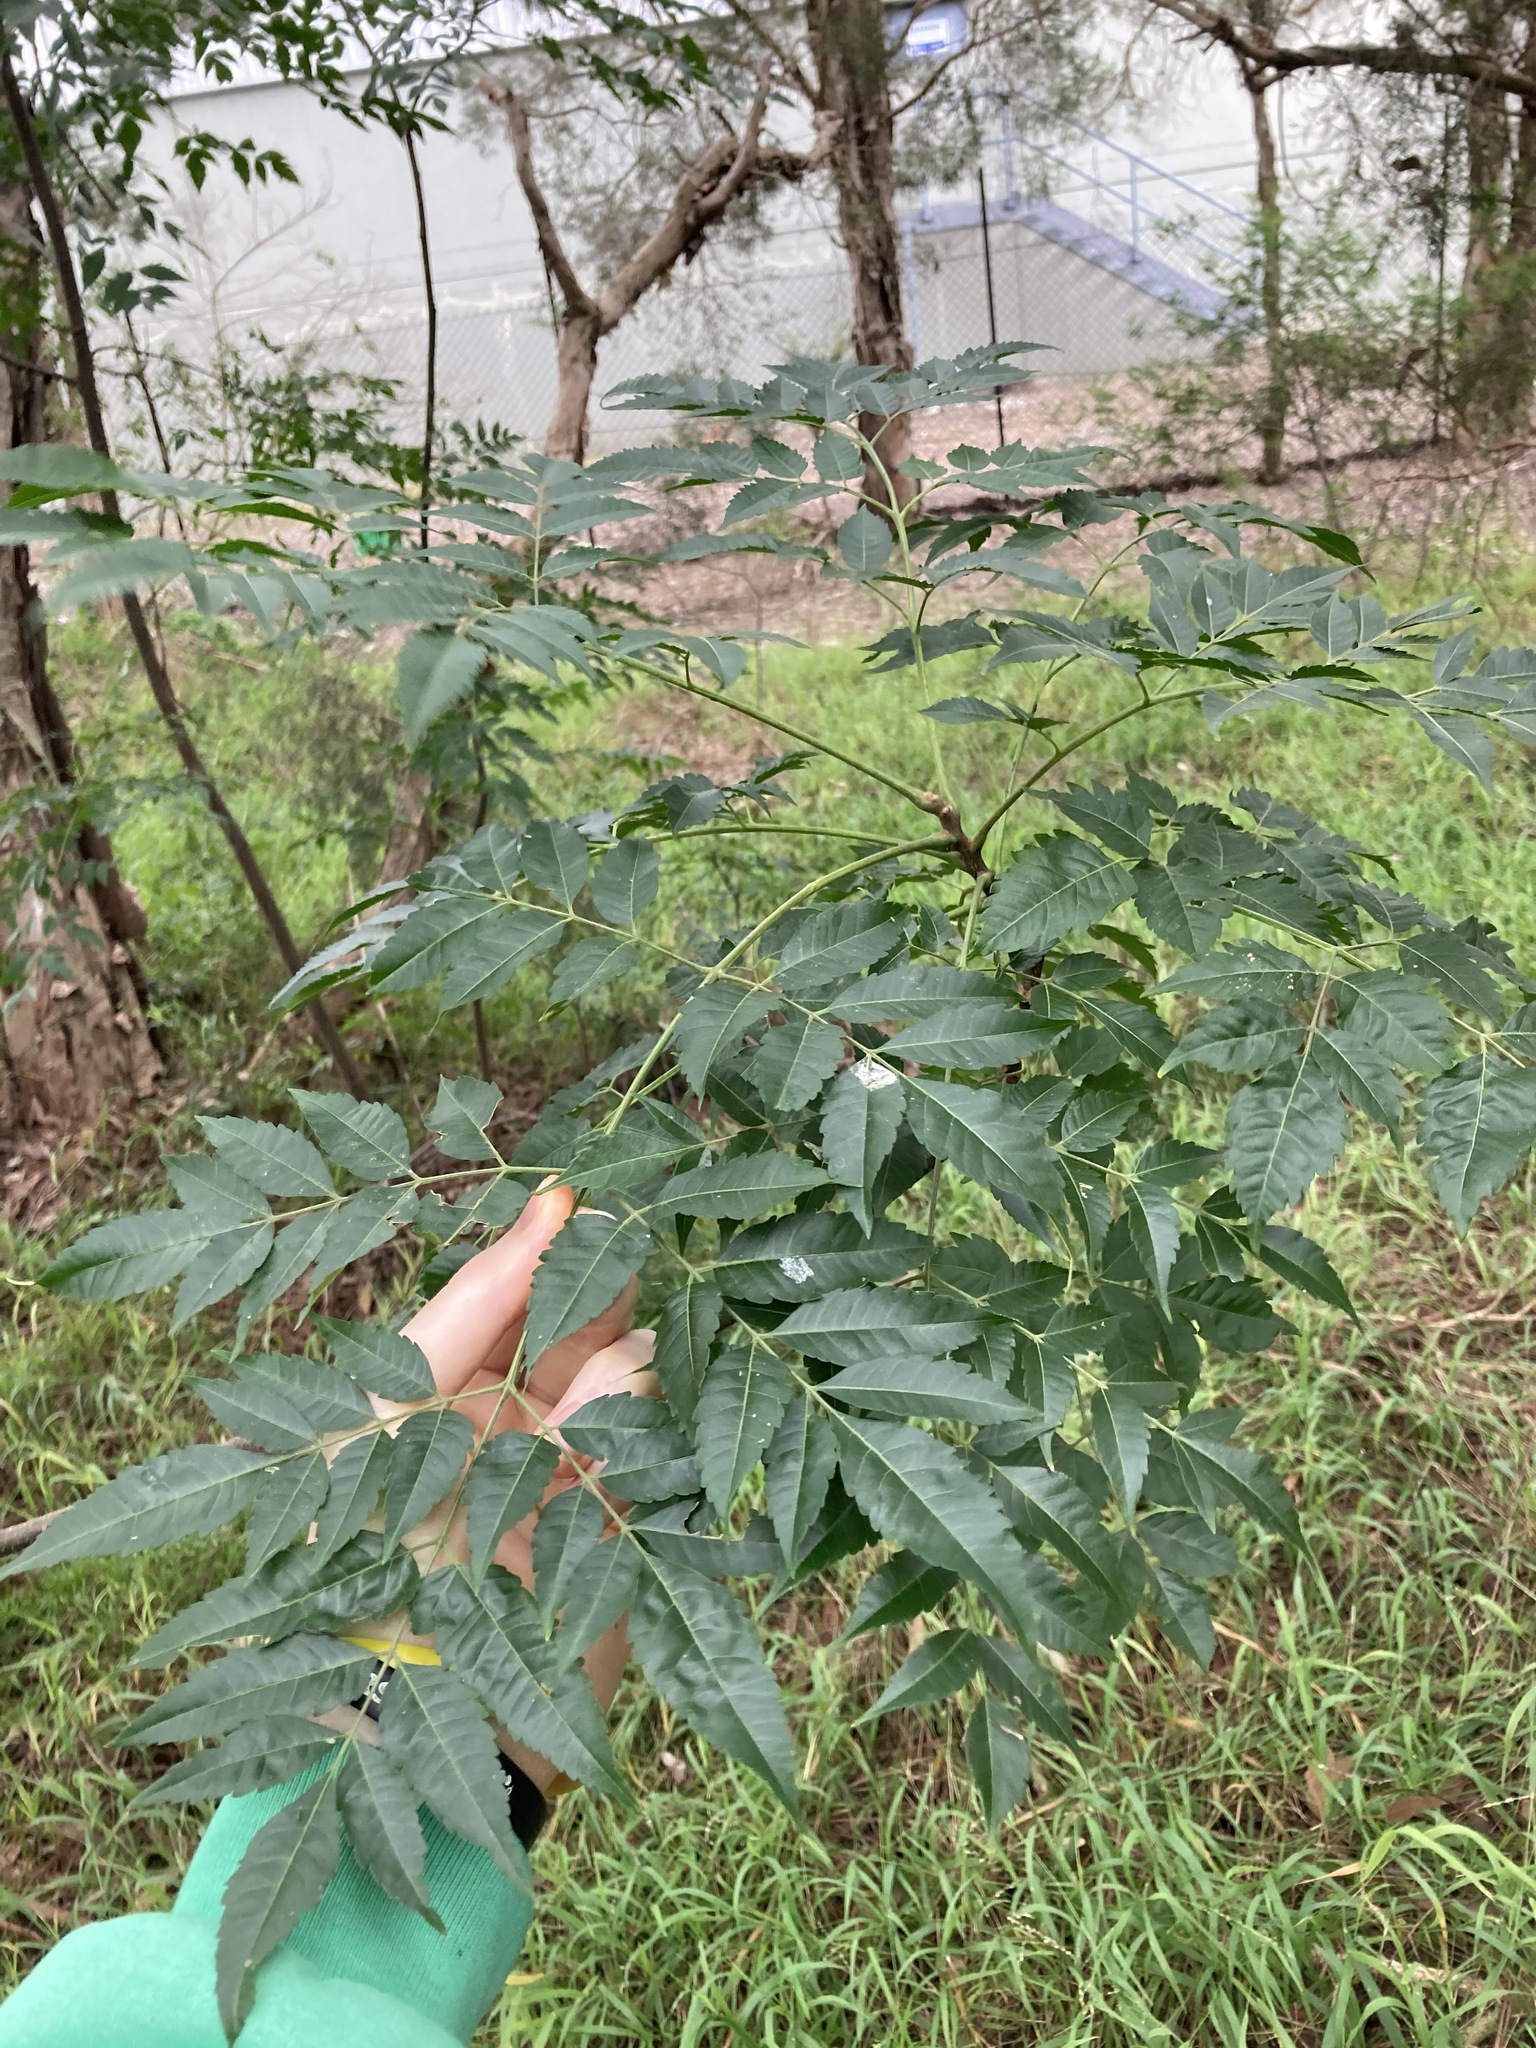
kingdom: Plantae
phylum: Tracheophyta
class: Magnoliopsida
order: Sapindales
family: Meliaceae
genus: Melia
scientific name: Melia azedarach
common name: Chinaberrytree
